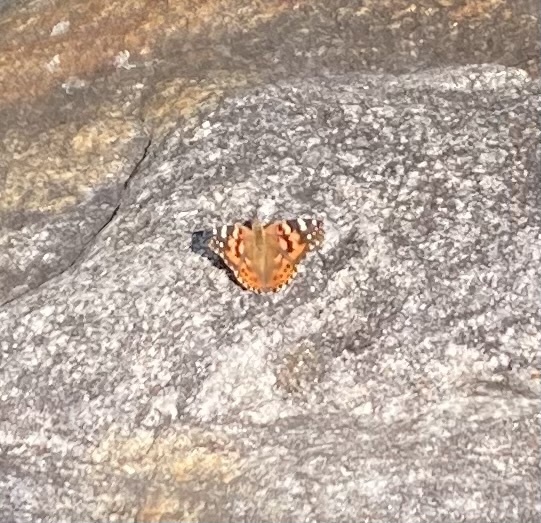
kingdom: Animalia
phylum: Arthropoda
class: Insecta
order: Lepidoptera
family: Nymphalidae
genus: Vanessa
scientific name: Vanessa cardui
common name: Painted lady
